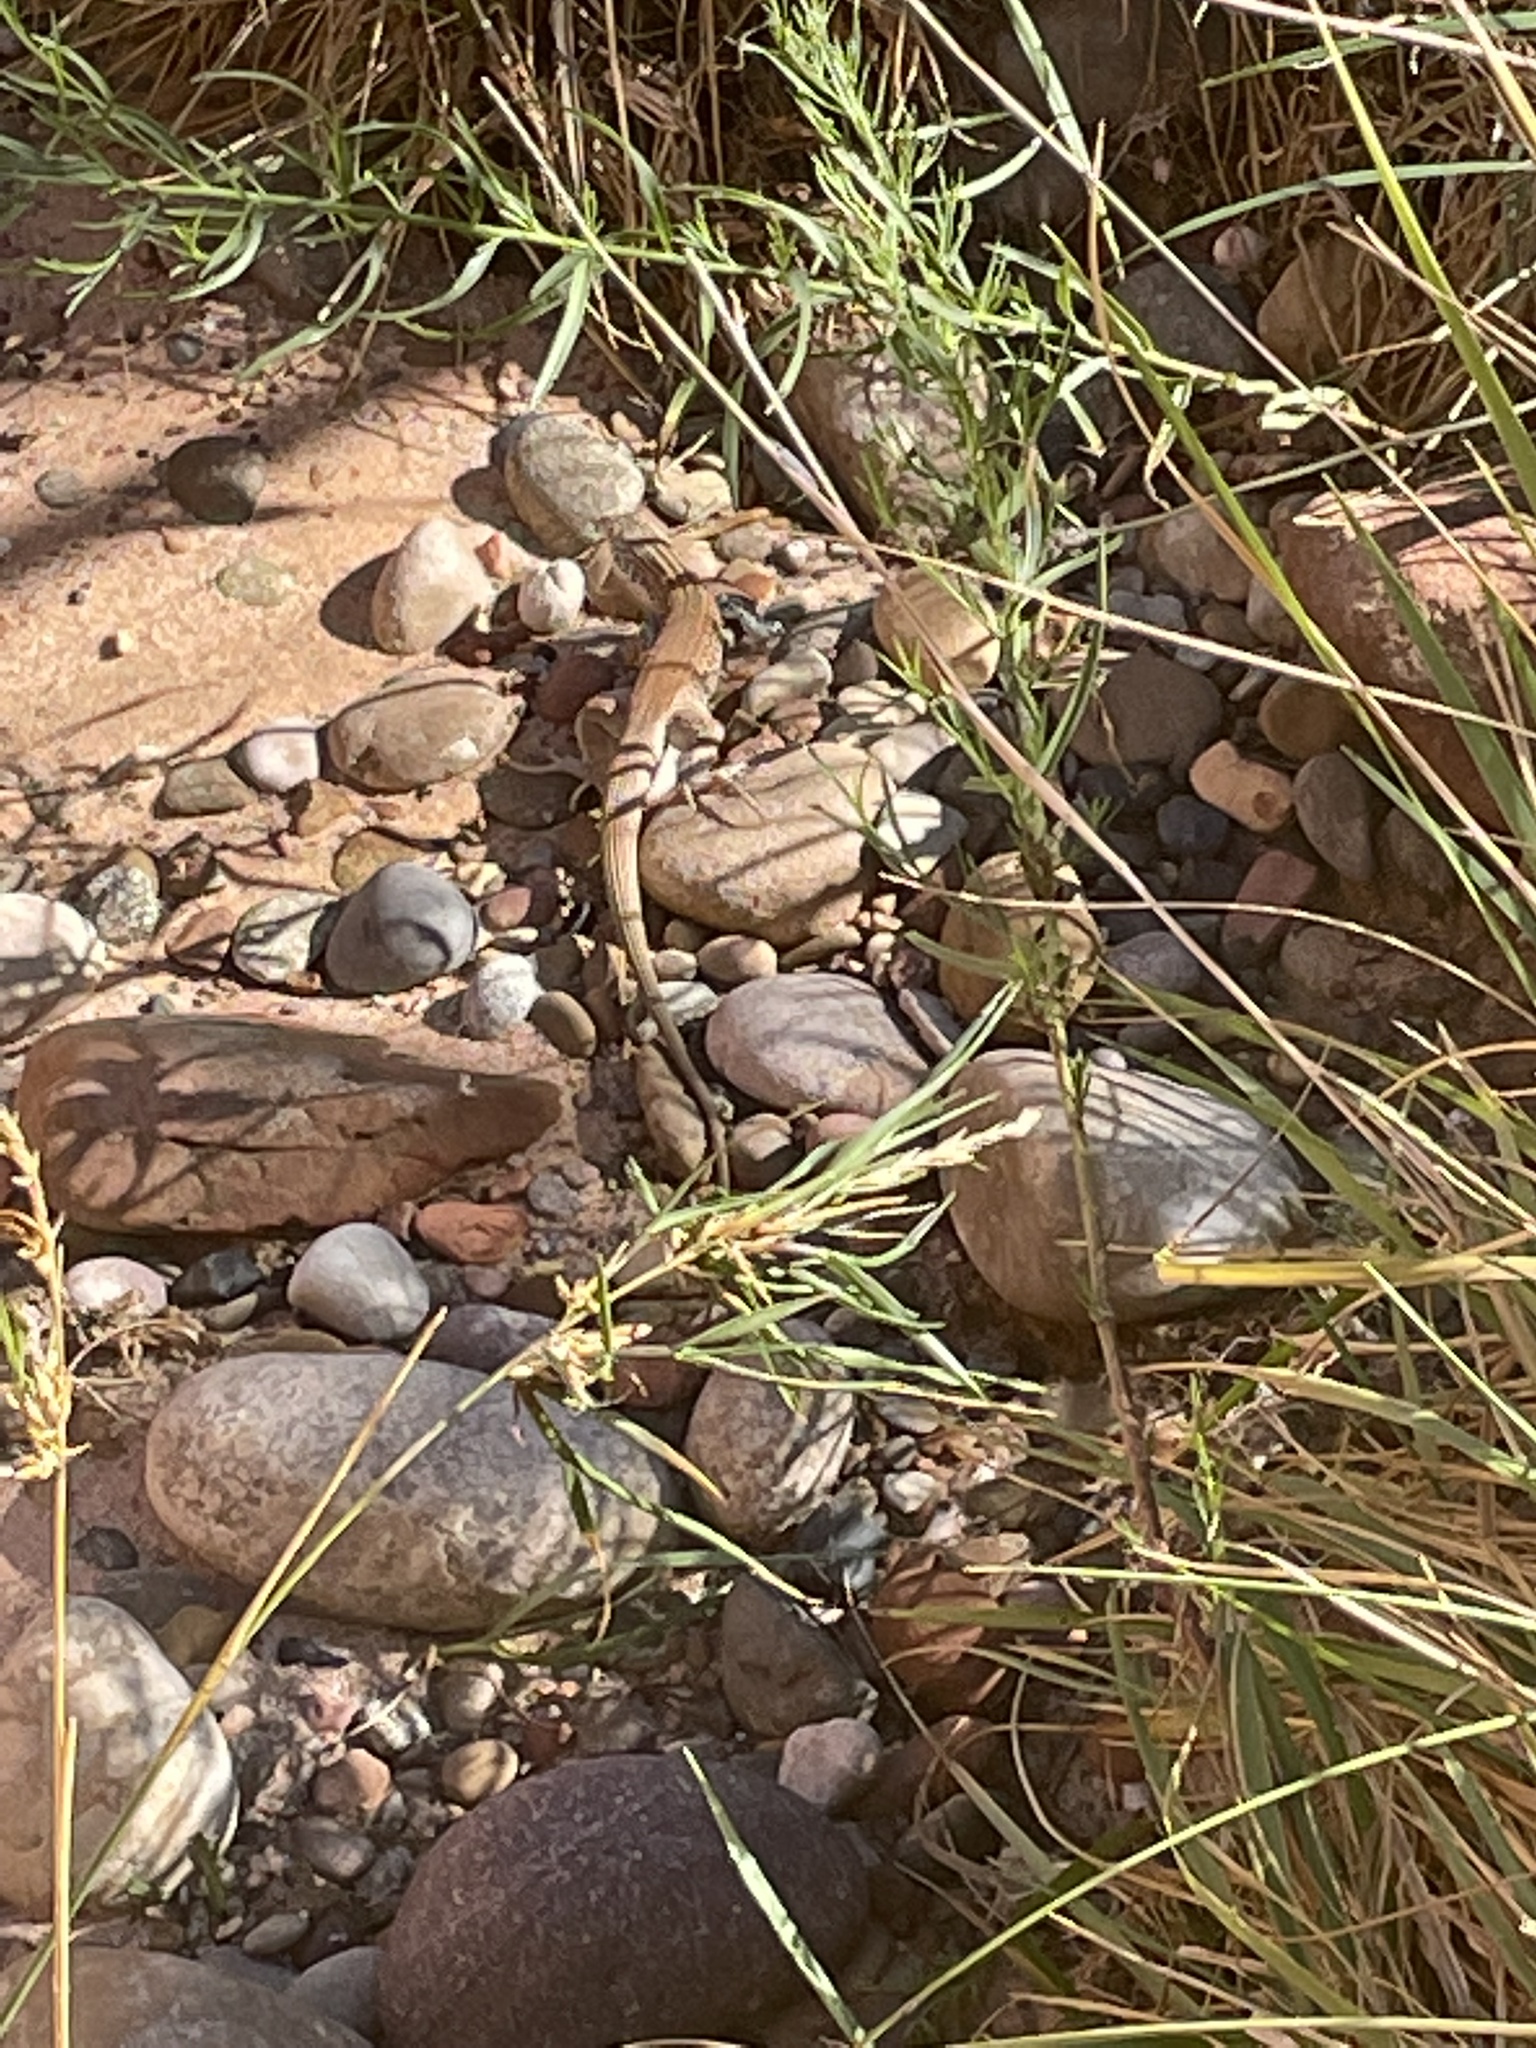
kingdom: Animalia
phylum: Chordata
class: Squamata
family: Teiidae
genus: Aspidoscelis
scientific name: Aspidoscelis tigris
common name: Tiger whiptail
